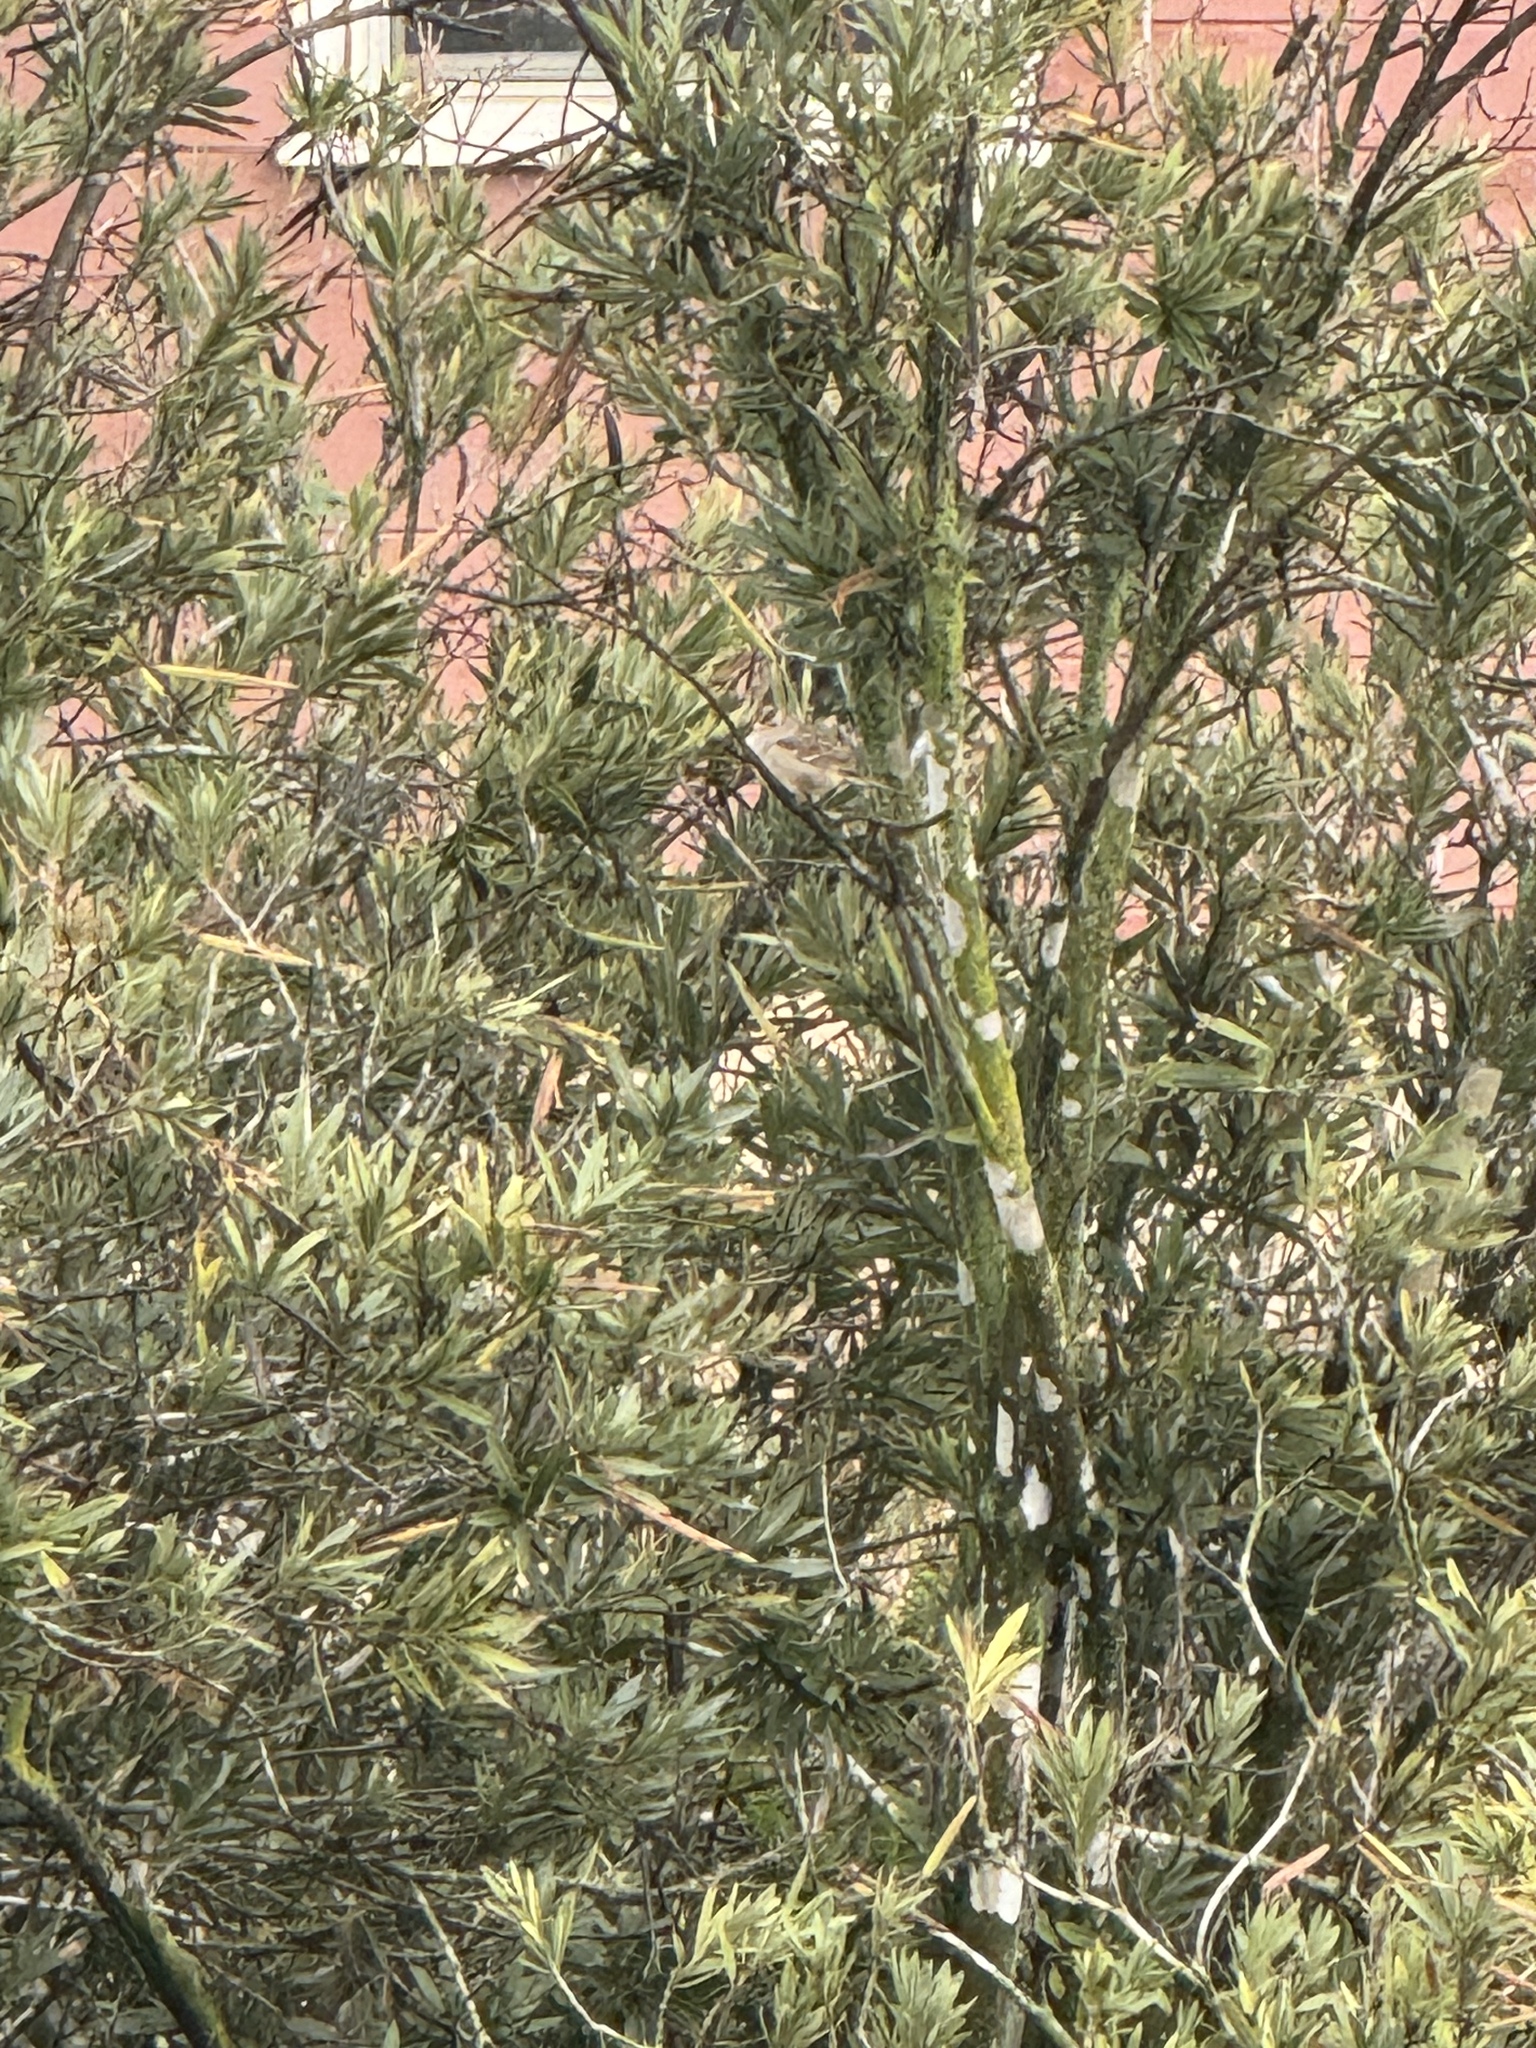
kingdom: Animalia
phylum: Chordata
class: Aves
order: Passeriformes
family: Passerellidae
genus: Zonotrichia
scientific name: Zonotrichia leucophrys
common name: White-crowned sparrow
